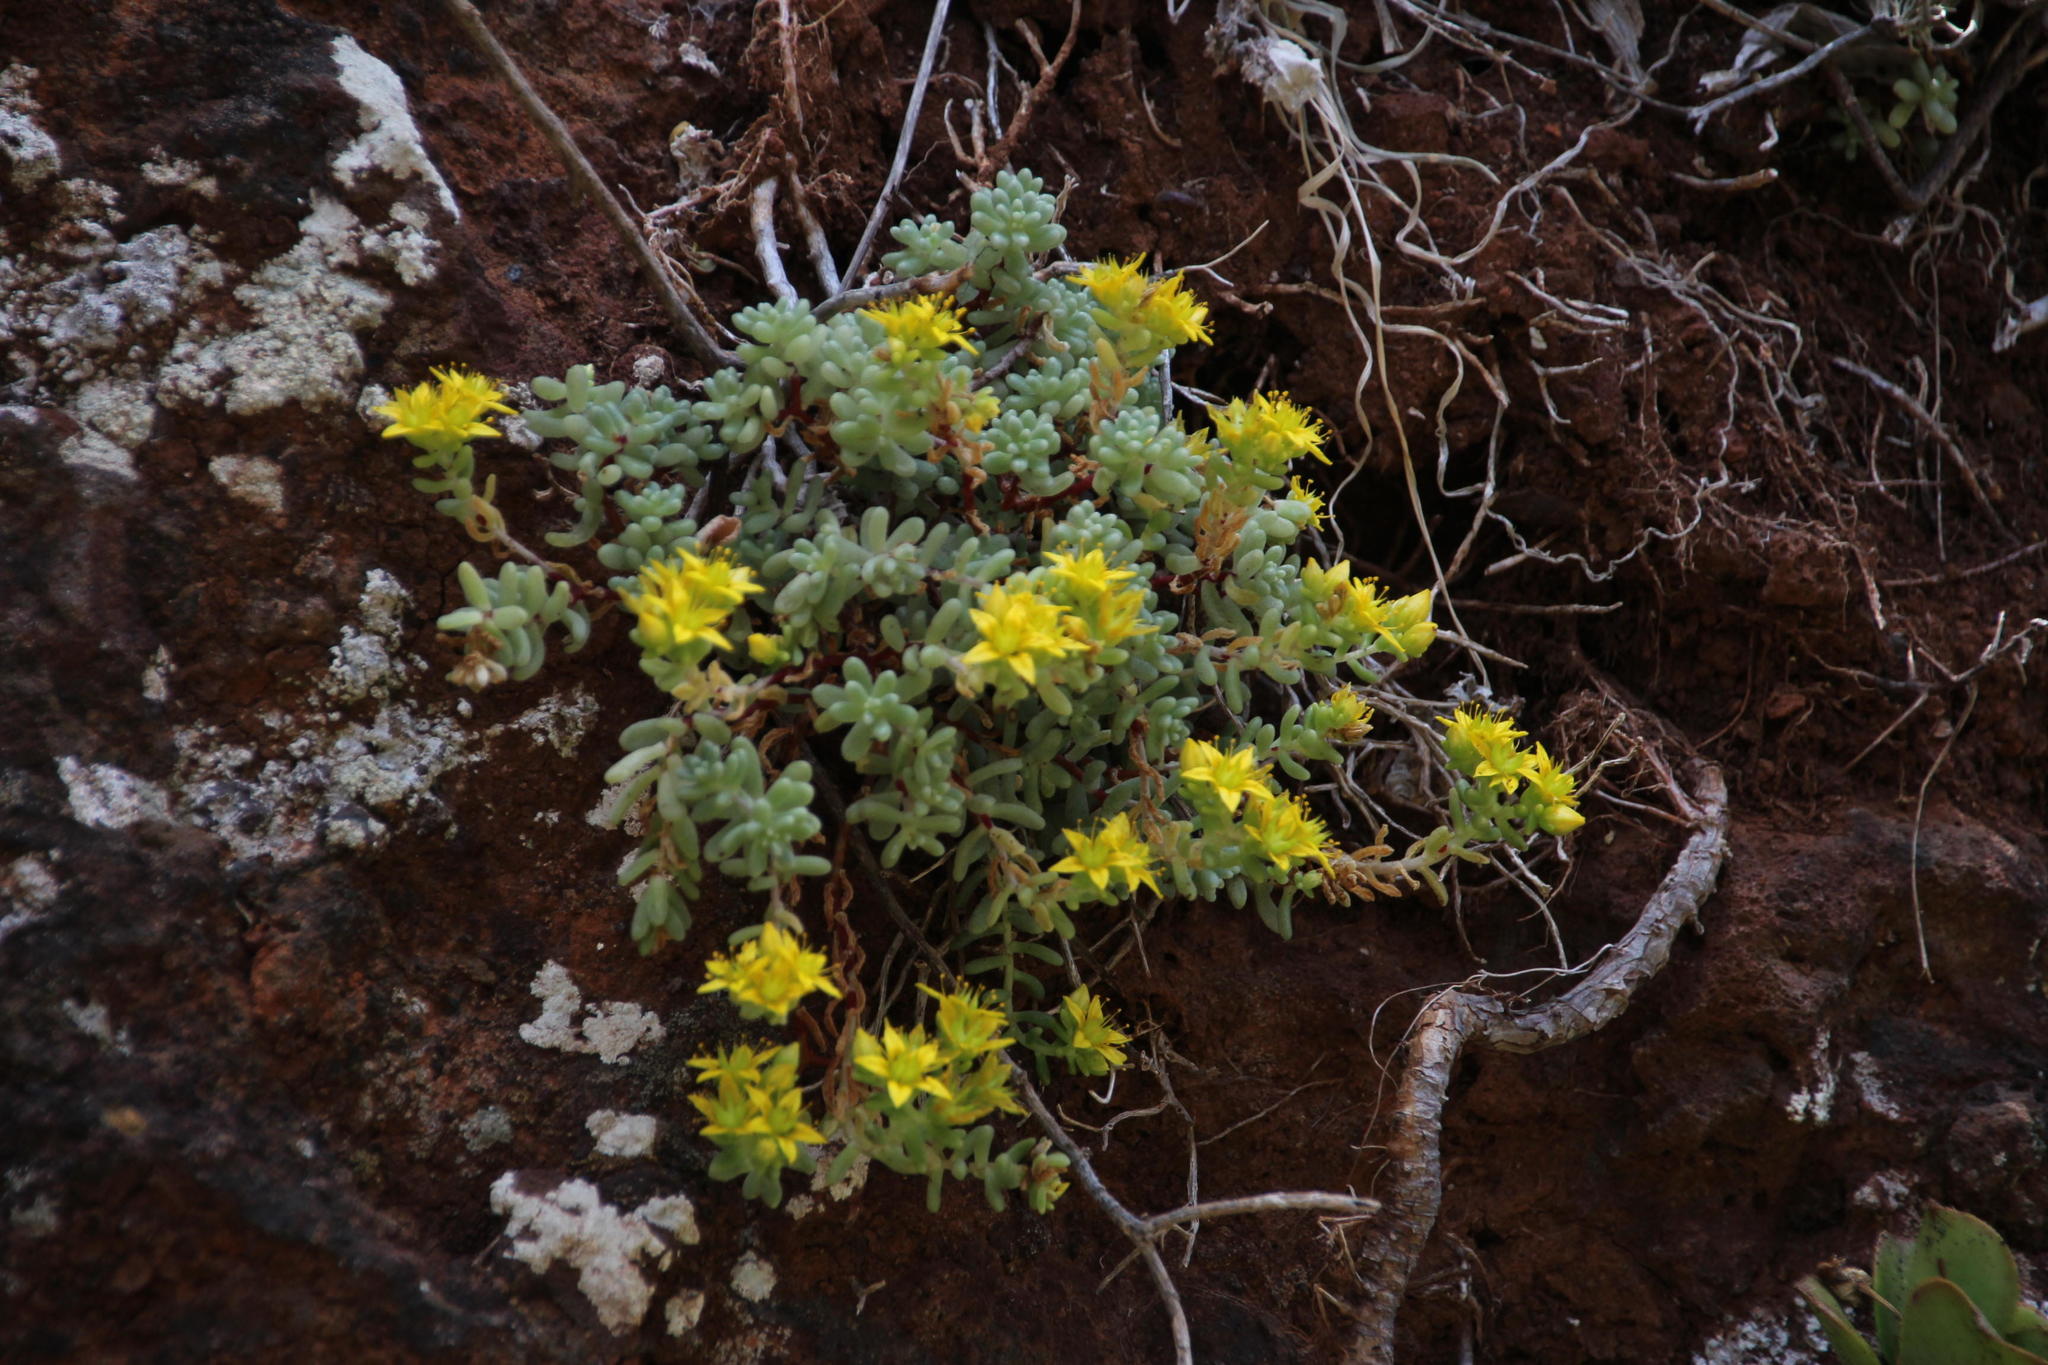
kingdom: Plantae
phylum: Tracheophyta
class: Magnoliopsida
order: Saxifragales
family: Crassulaceae
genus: Sedum
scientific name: Sedum nudum
